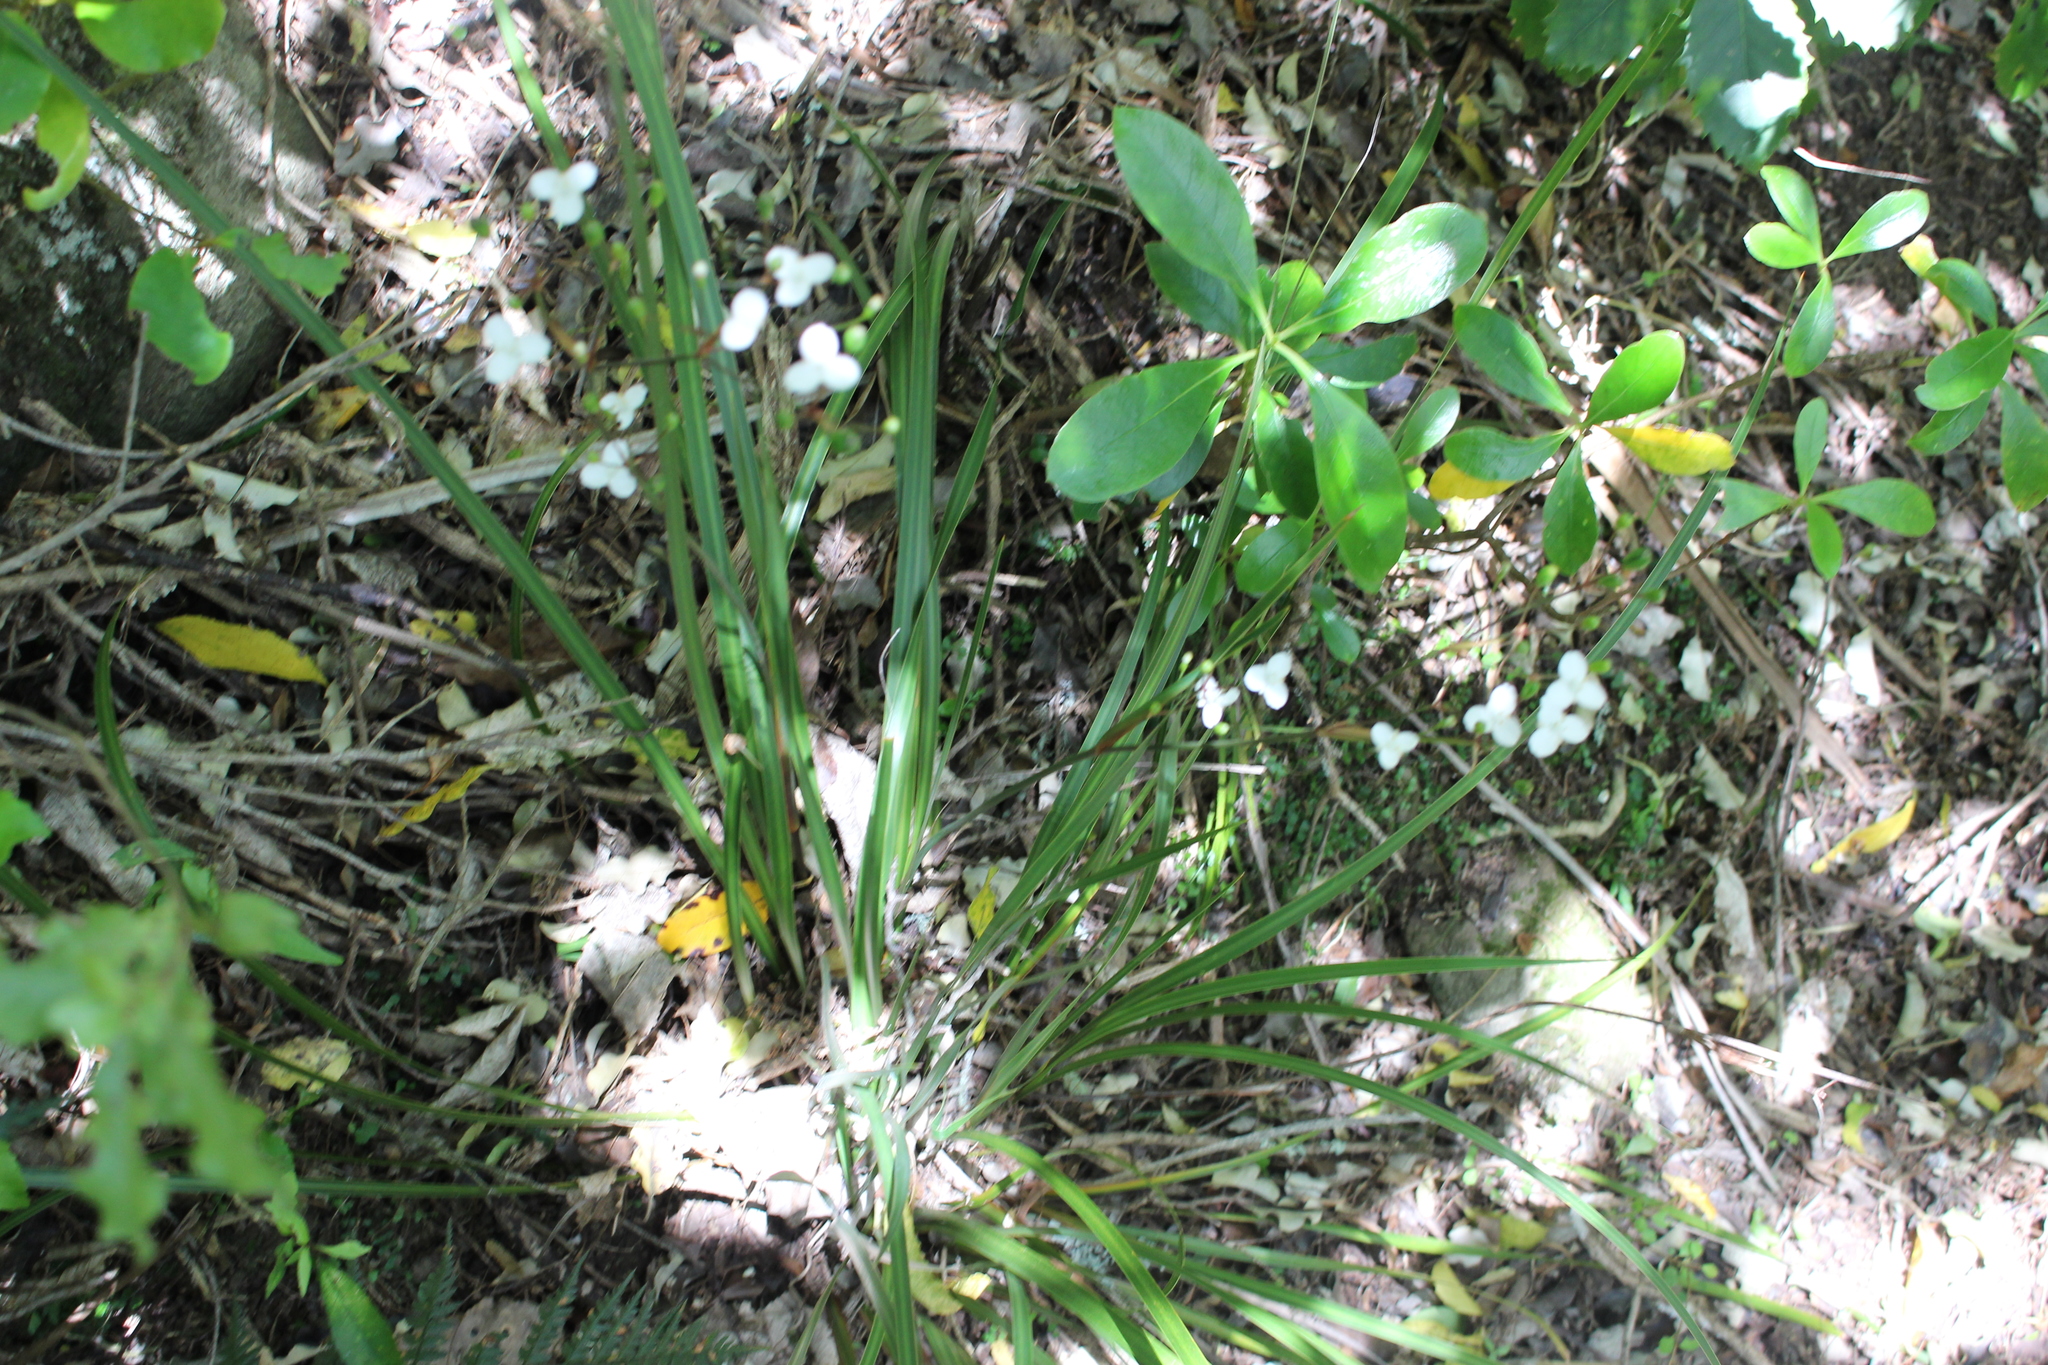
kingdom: Plantae
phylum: Tracheophyta
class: Liliopsida
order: Asparagales
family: Iridaceae
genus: Libertia
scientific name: Libertia ixioides
